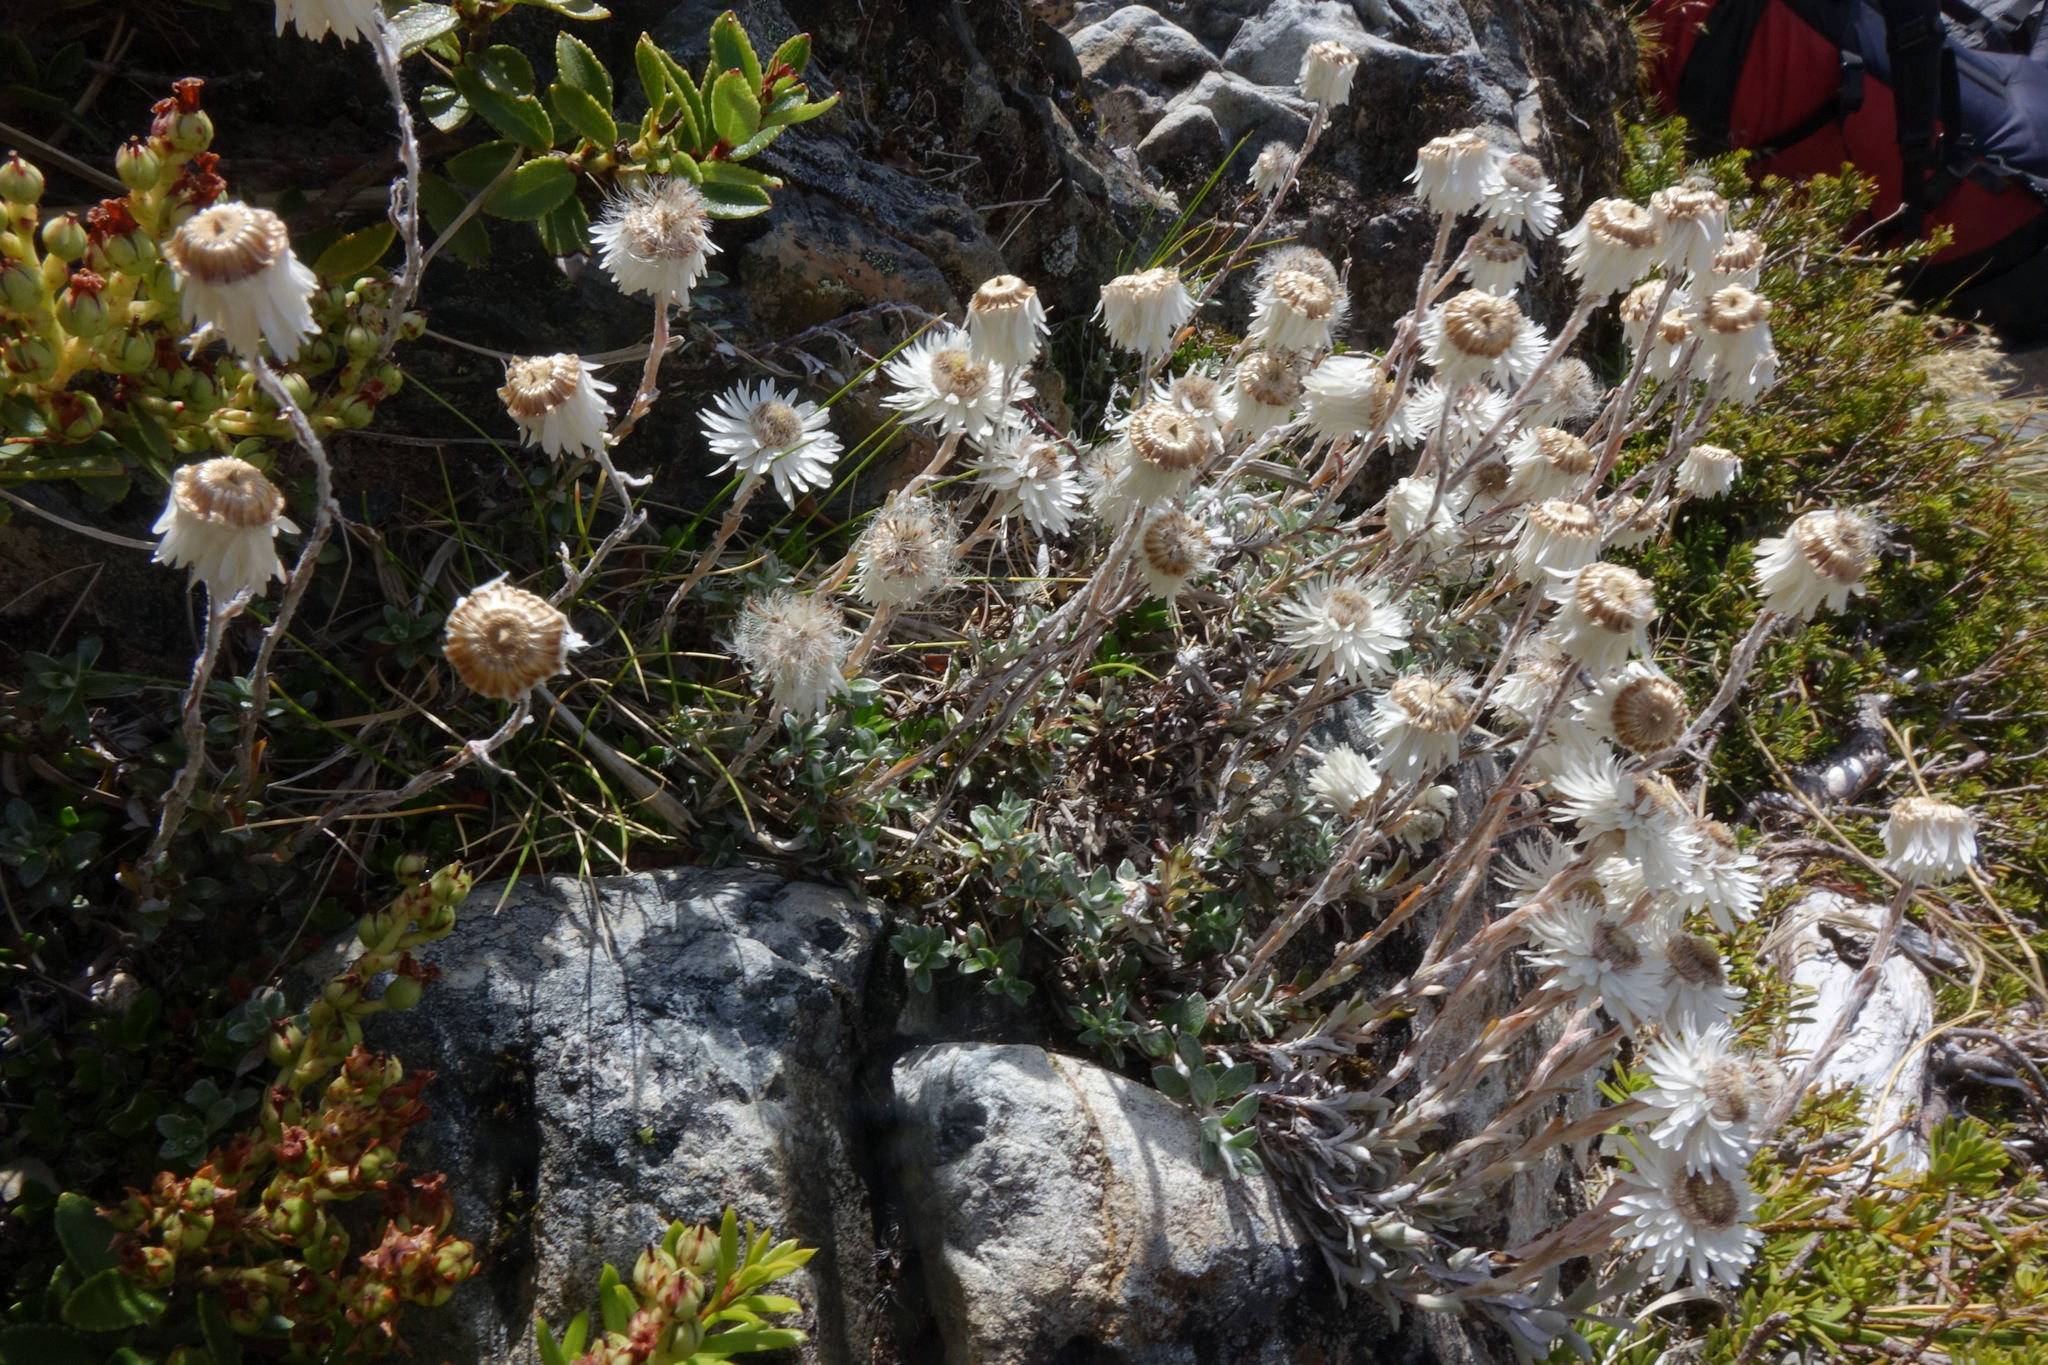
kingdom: Plantae
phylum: Tracheophyta
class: Magnoliopsida
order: Asterales
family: Asteraceae
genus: Anaphalioides
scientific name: Anaphalioides bellidioides
